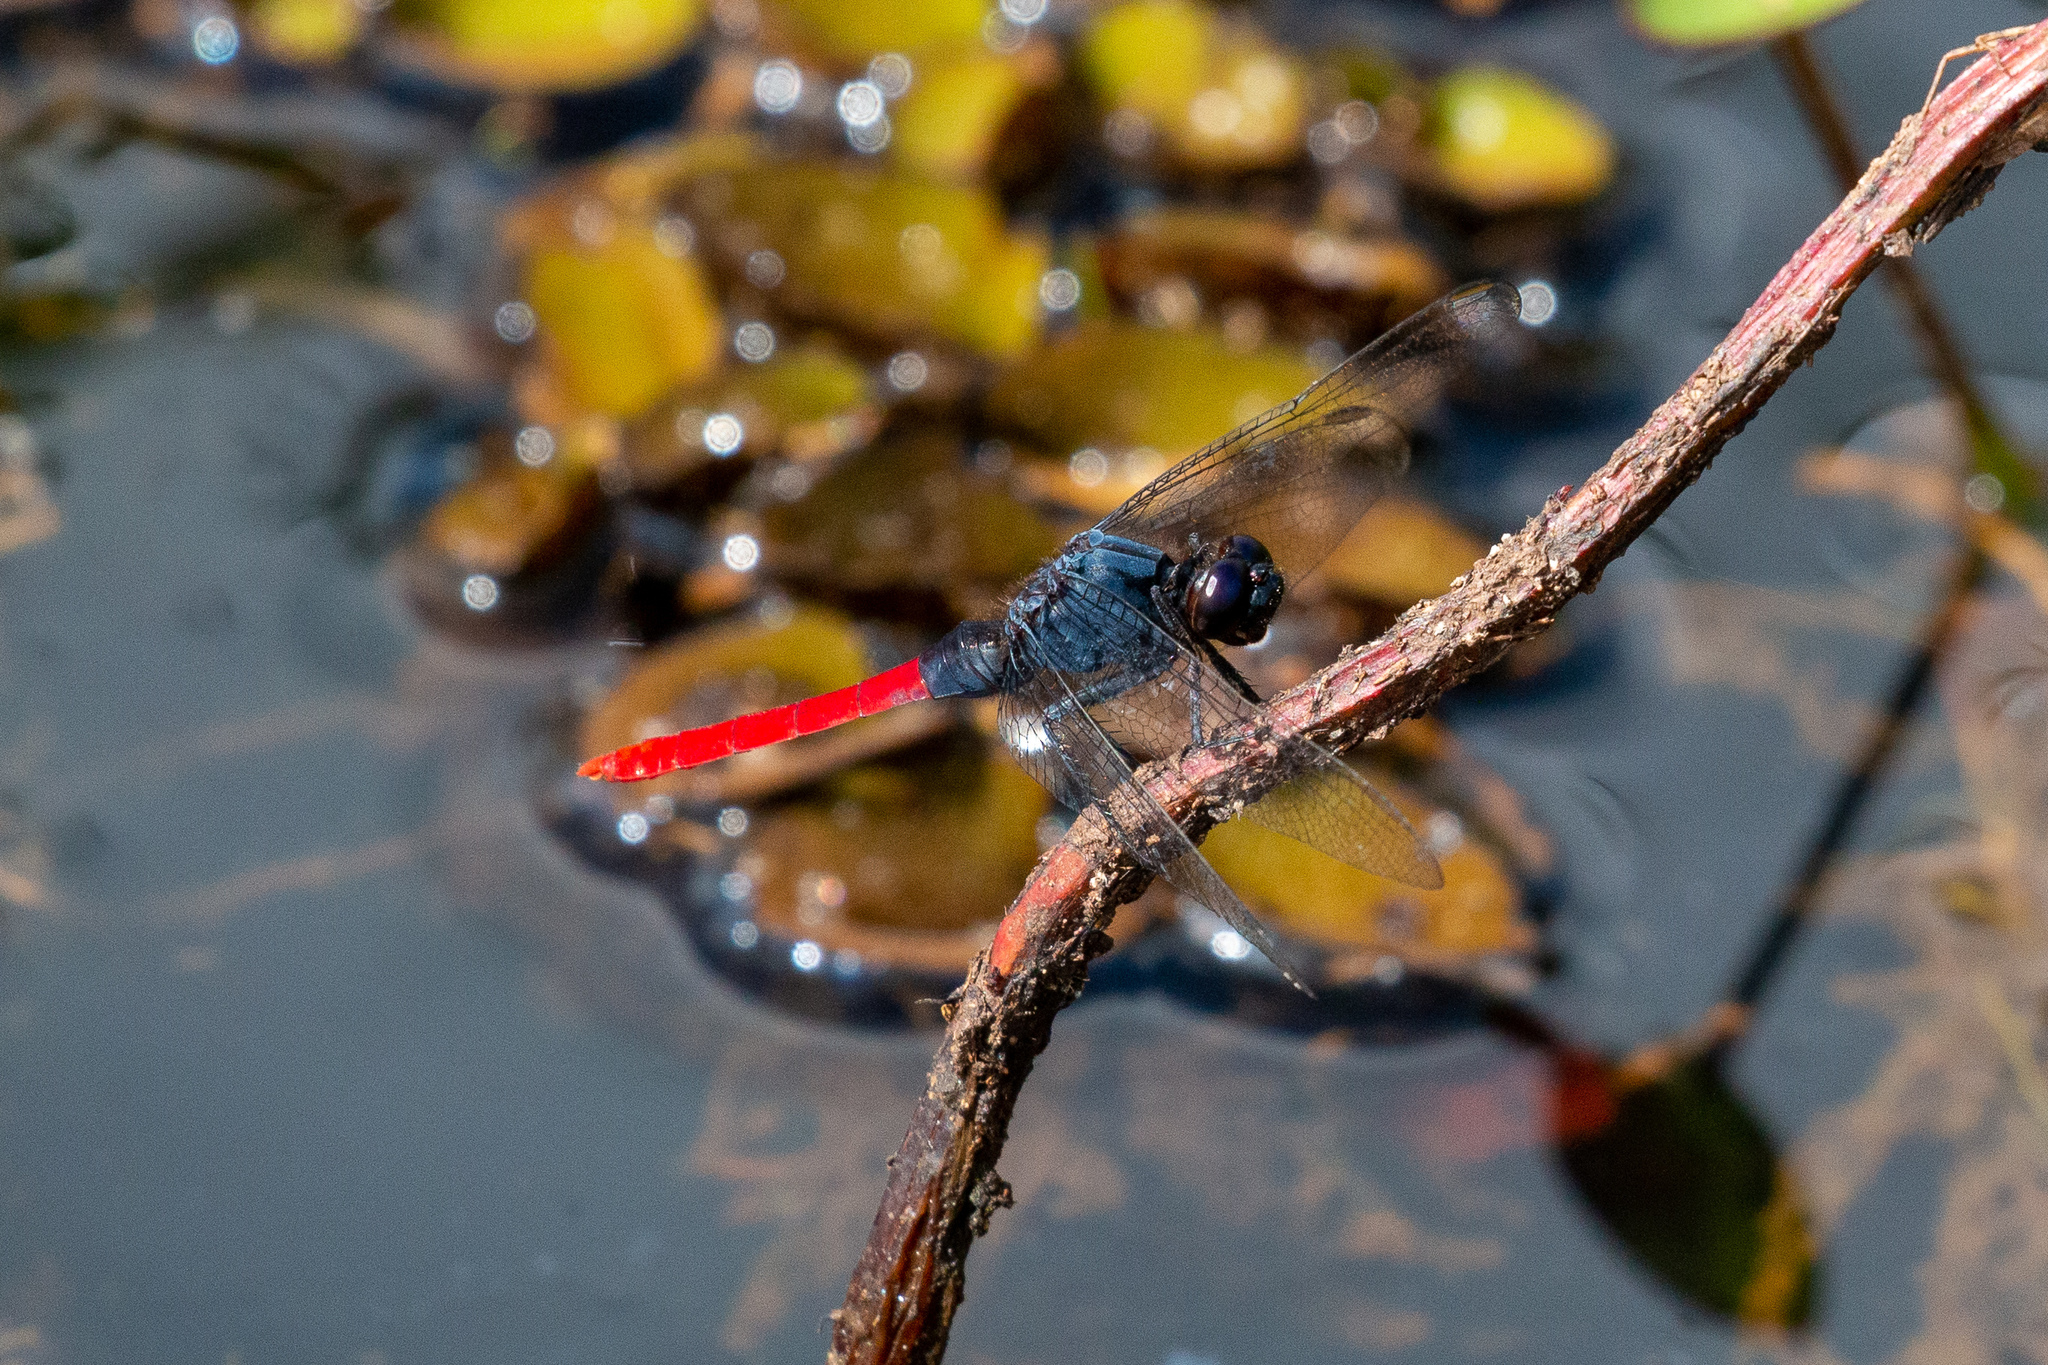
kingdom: Animalia
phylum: Arthropoda
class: Insecta
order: Odonata
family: Libellulidae
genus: Erythemis
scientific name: Erythemis peruviana
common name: Flame-tailed pondhawk
